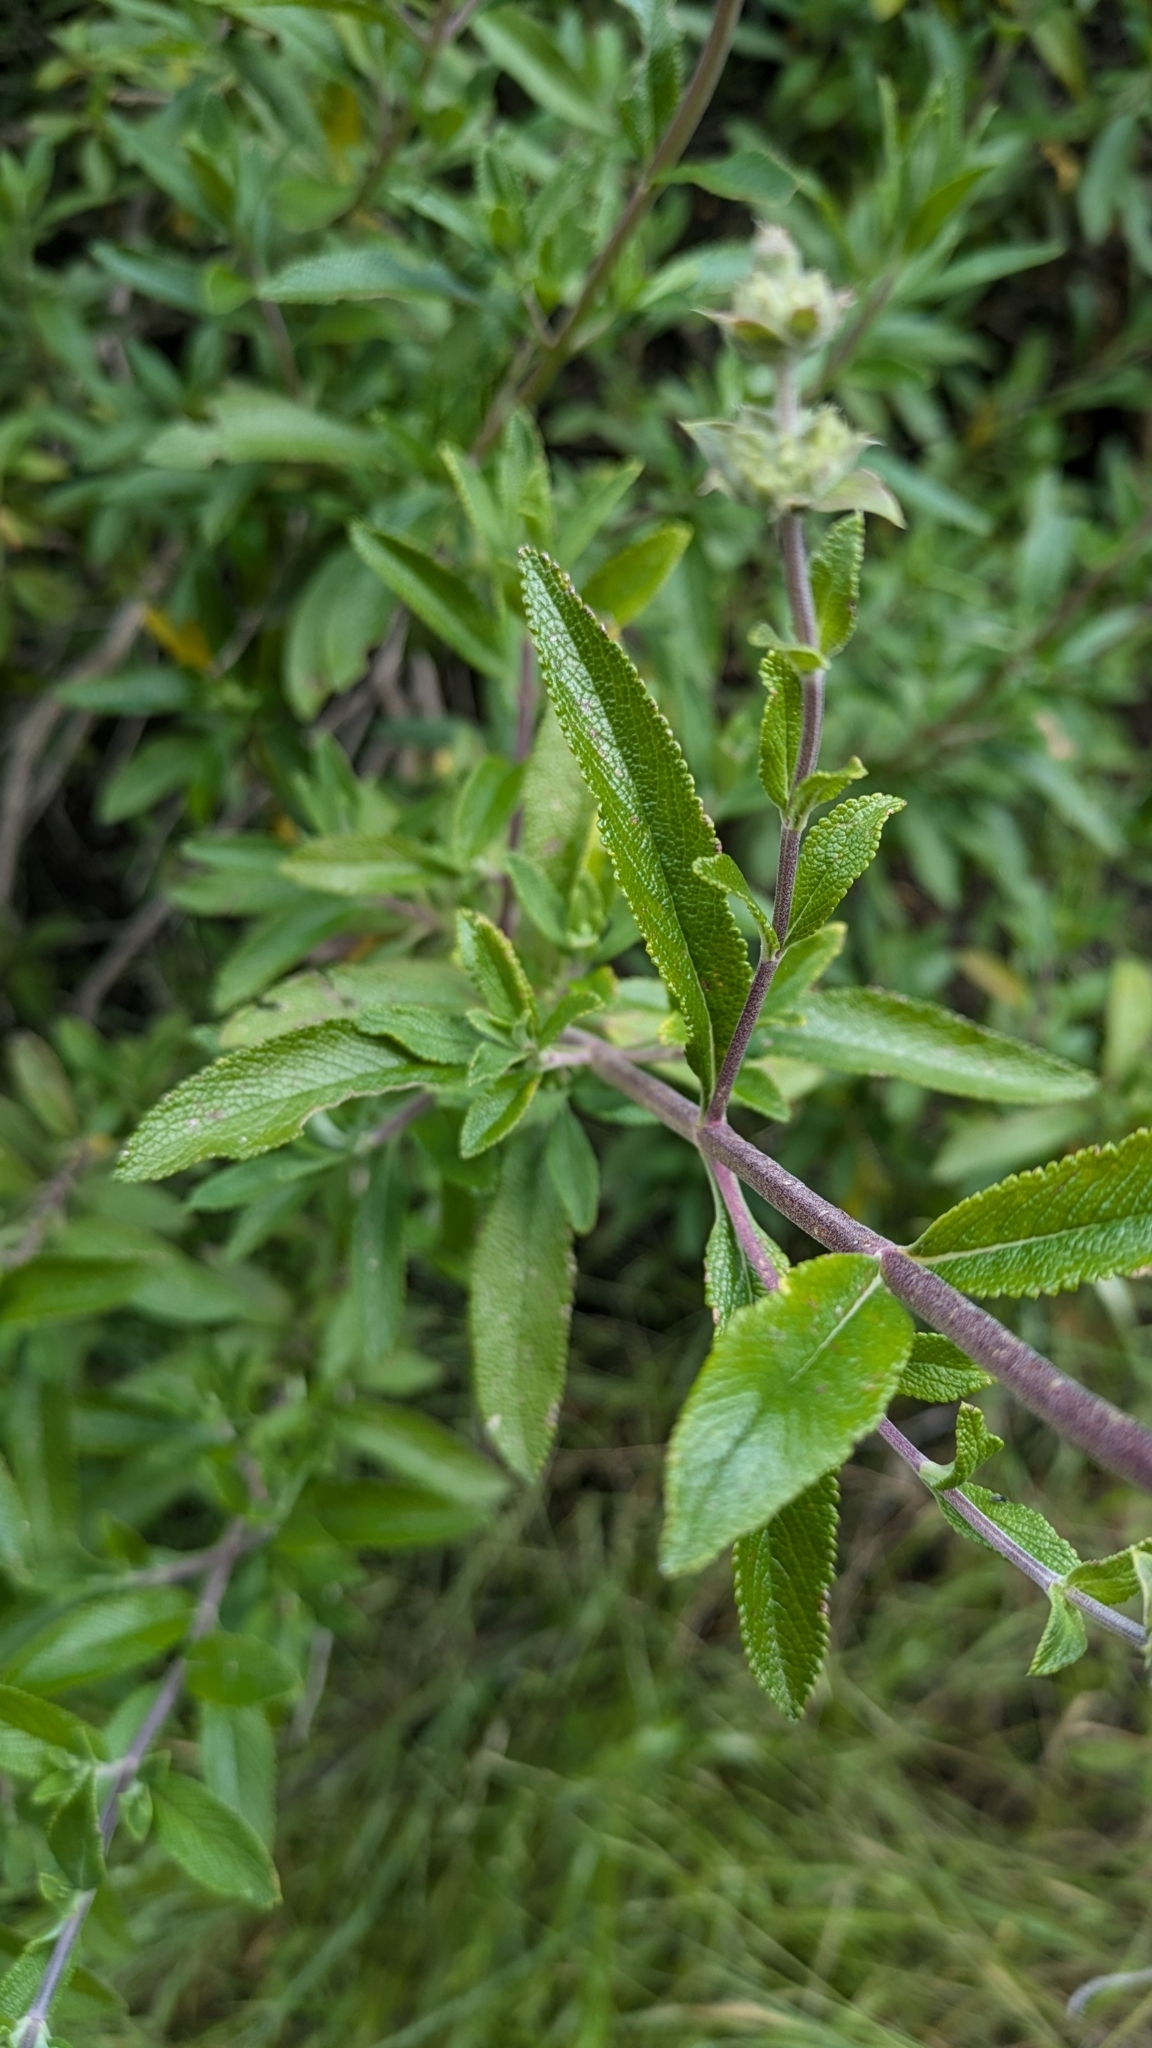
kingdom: Plantae
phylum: Tracheophyta
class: Magnoliopsida
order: Lamiales
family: Lamiaceae
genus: Salvia
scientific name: Salvia mellifera
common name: Black sage
